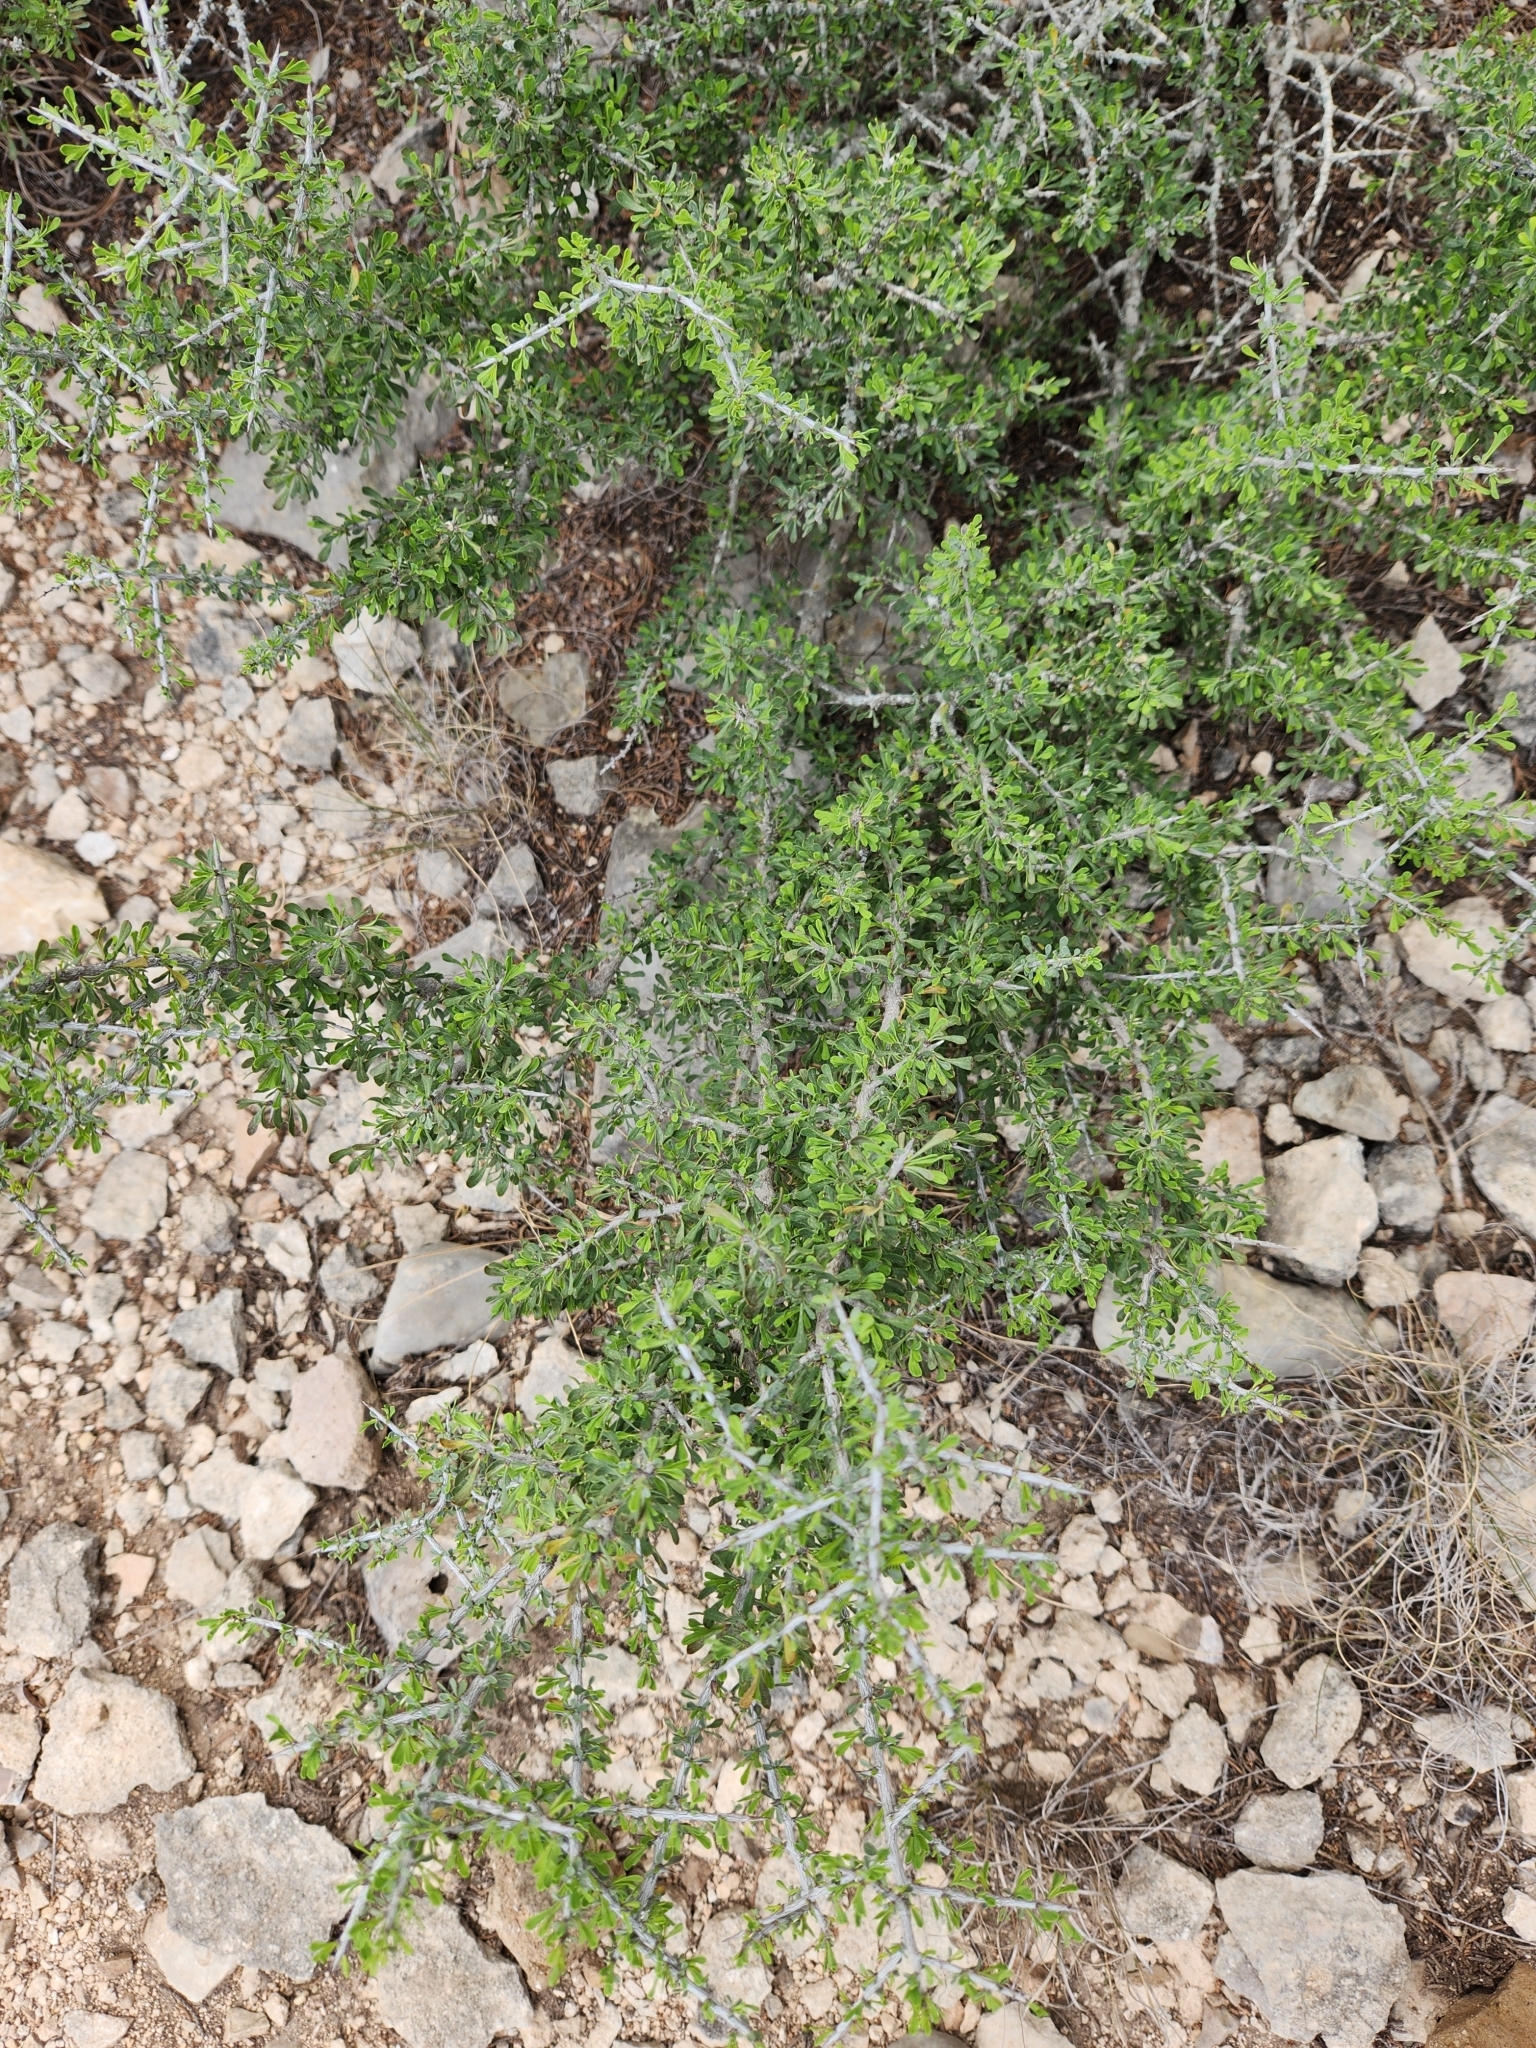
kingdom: Plantae
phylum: Tracheophyta
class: Magnoliopsida
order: Rosales
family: Rhamnaceae
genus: Condalia
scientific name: Condalia spathulata
